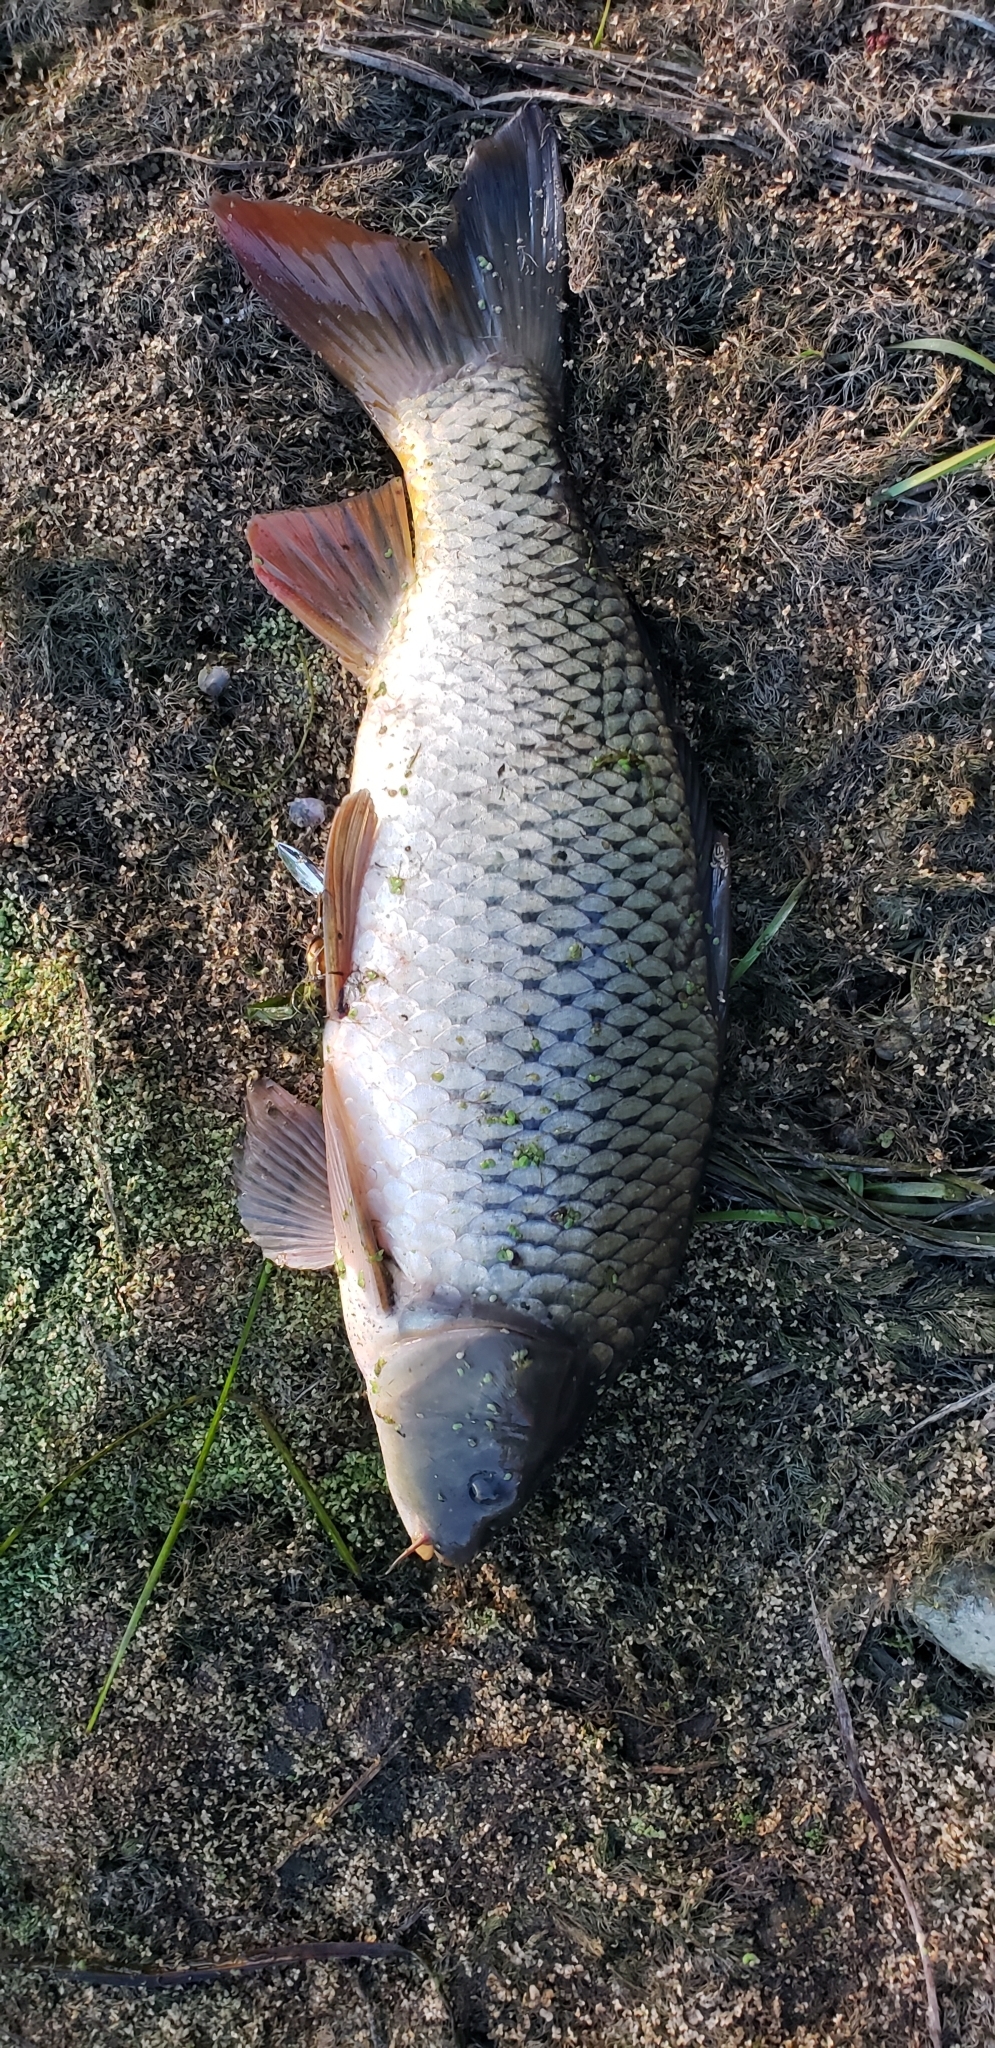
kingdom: Animalia
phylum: Chordata
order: Cypriniformes
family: Cyprinidae
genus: Cyprinus
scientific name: Cyprinus carpio
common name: Common carp
